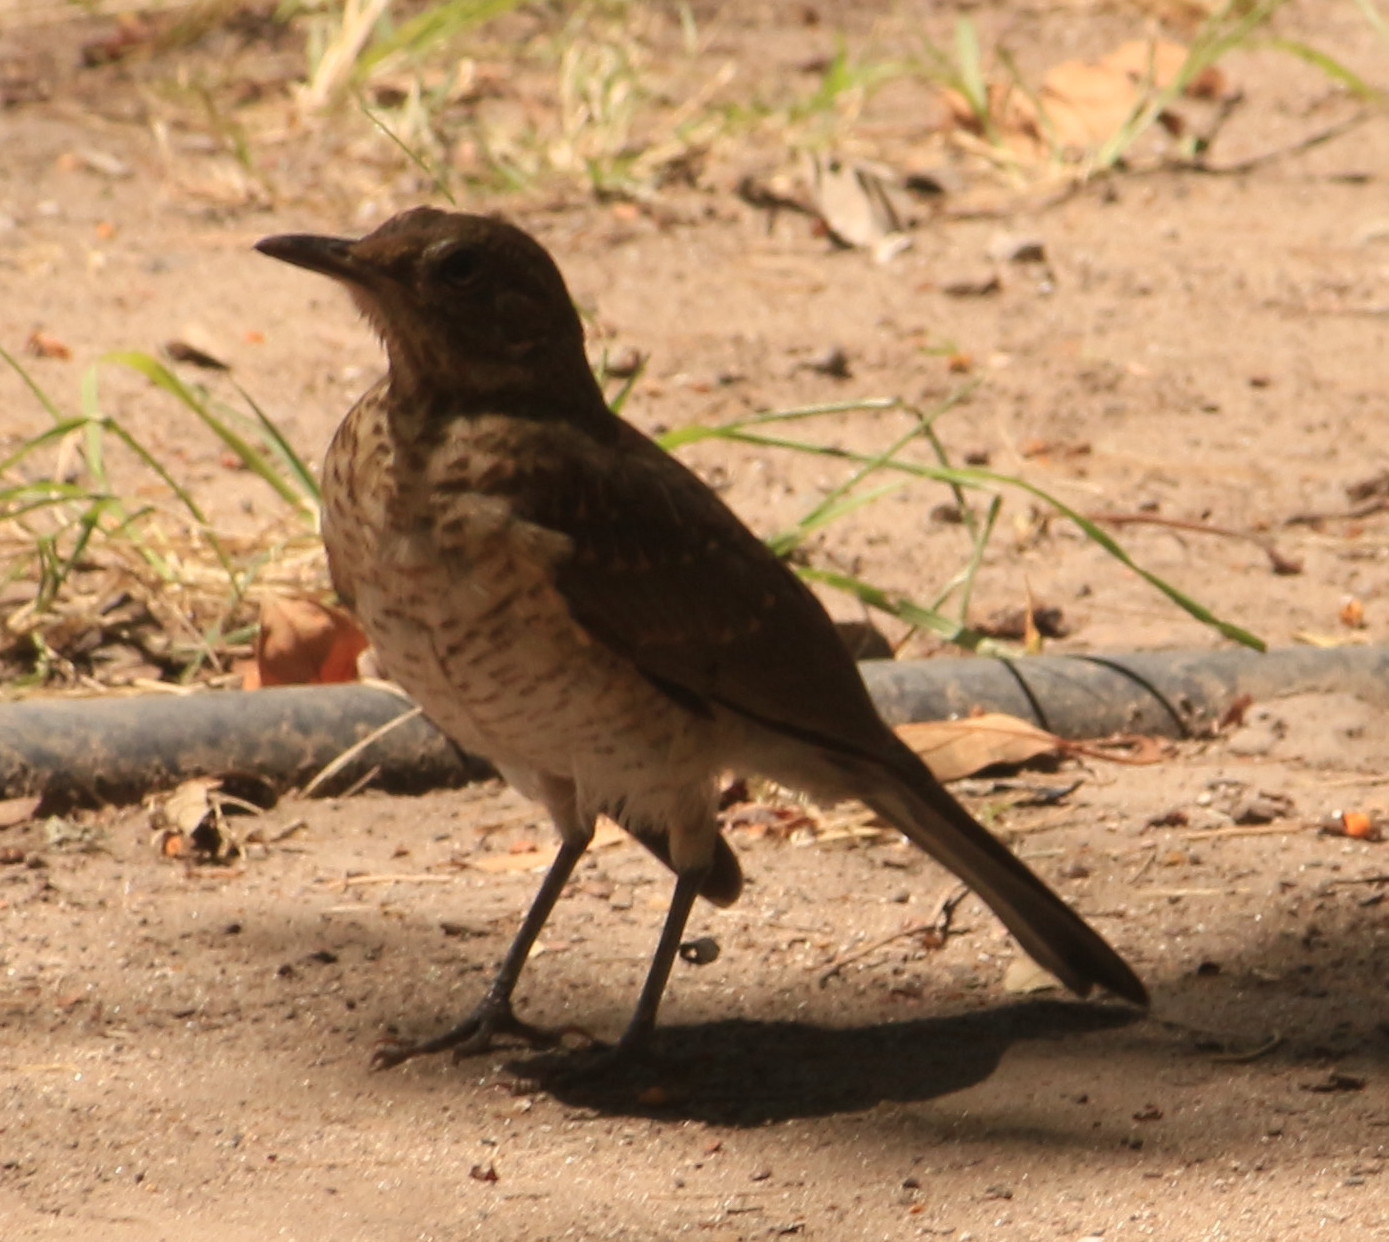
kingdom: Animalia
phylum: Chordata
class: Aves
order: Passeriformes
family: Turdidae
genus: Turdus
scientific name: Turdus amaurochalinus
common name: Creamy-bellied thrush
